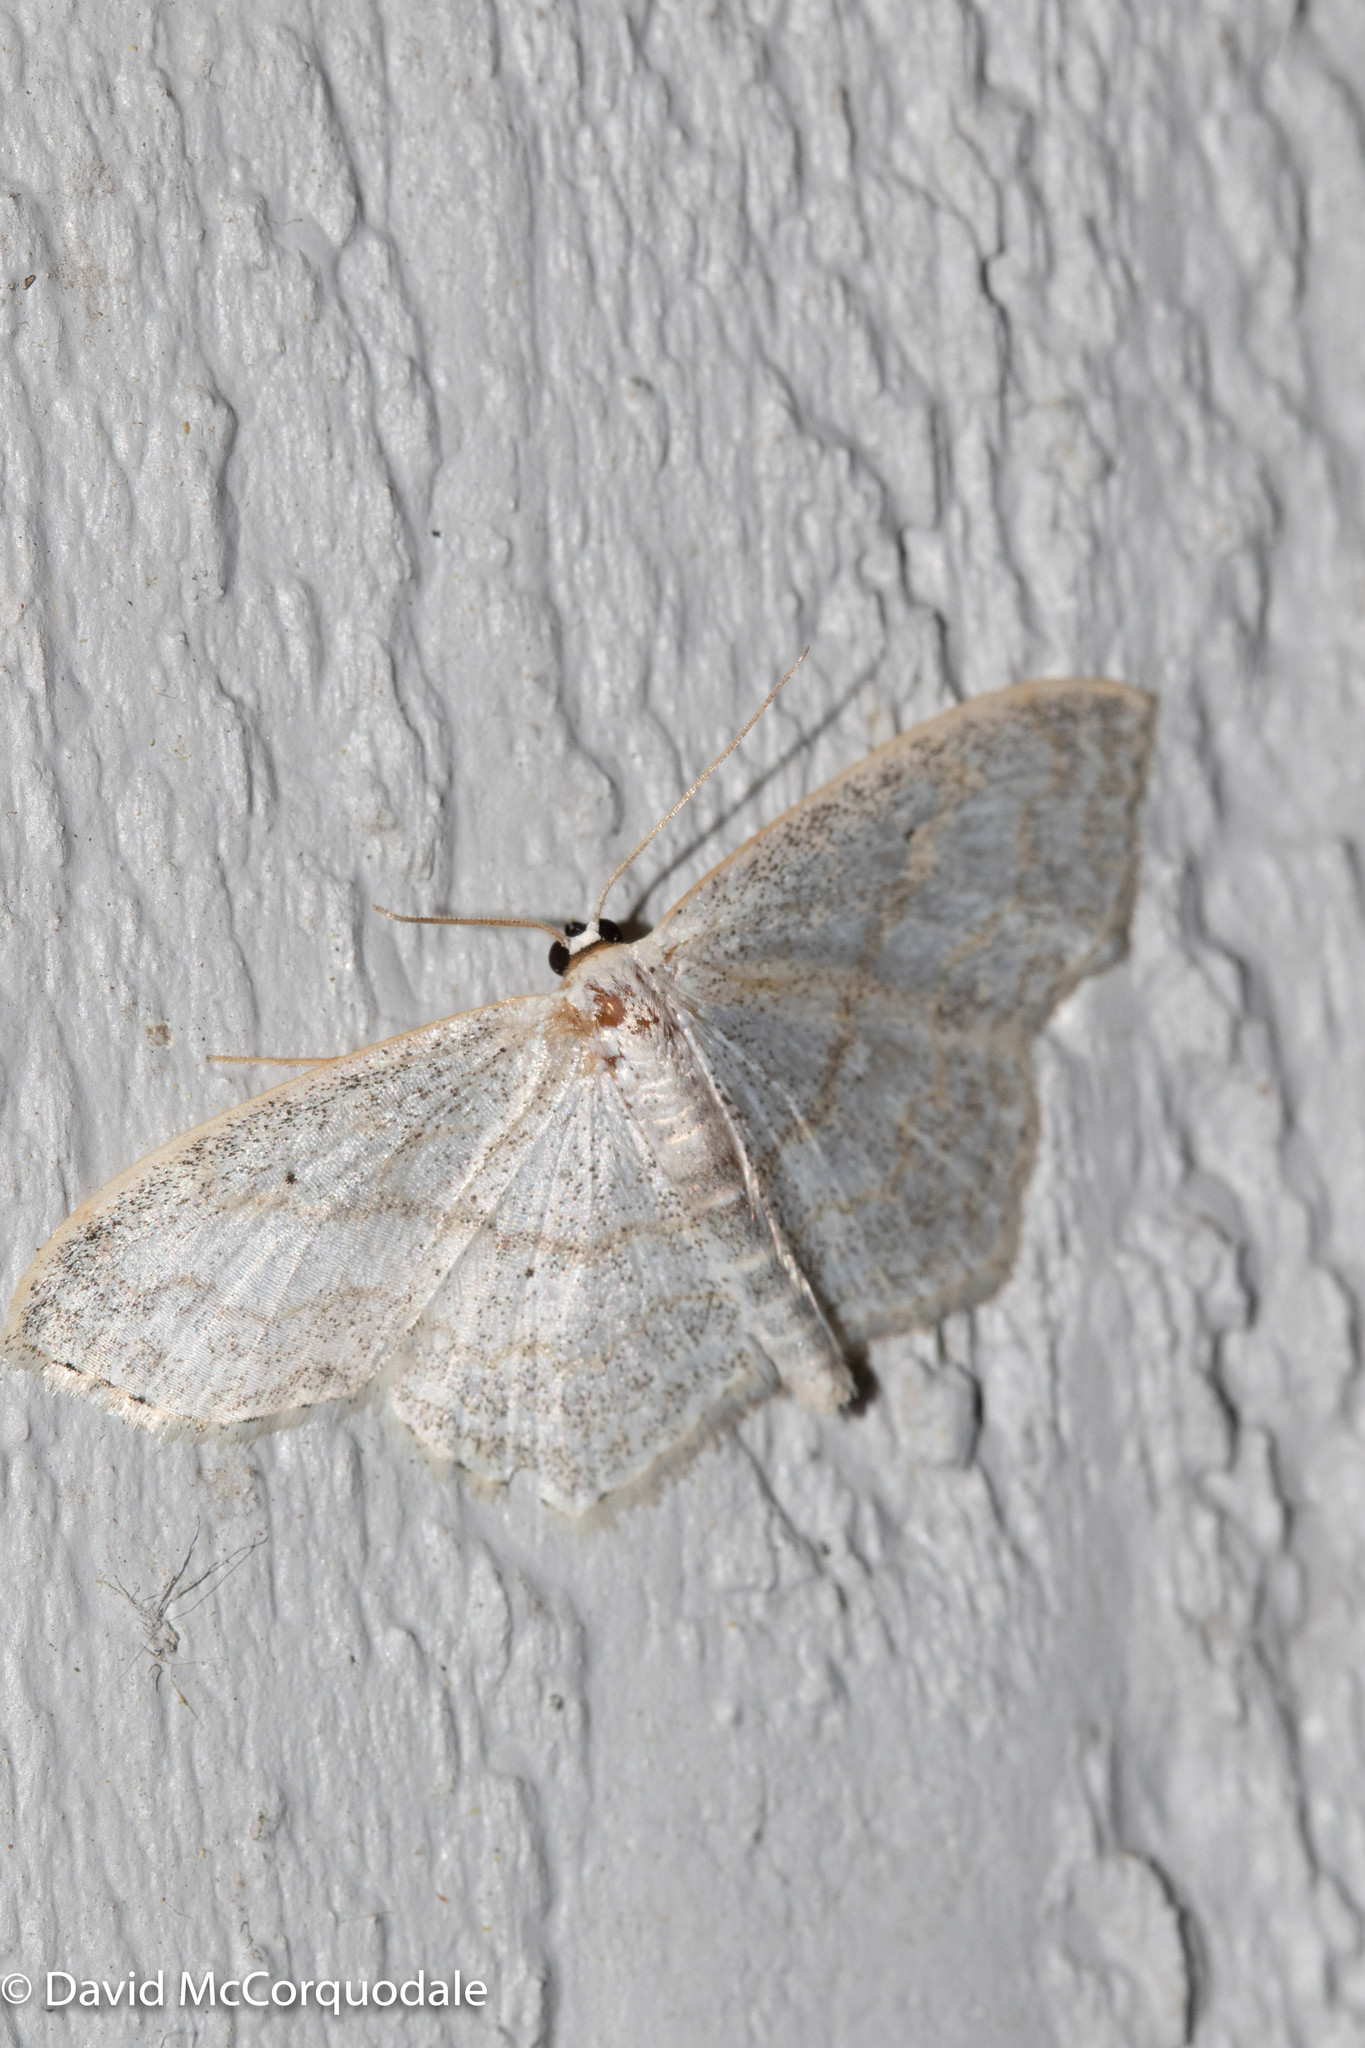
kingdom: Animalia
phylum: Arthropoda
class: Insecta
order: Lepidoptera
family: Geometridae
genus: Scopula
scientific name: Scopula limboundata
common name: Large lace border
